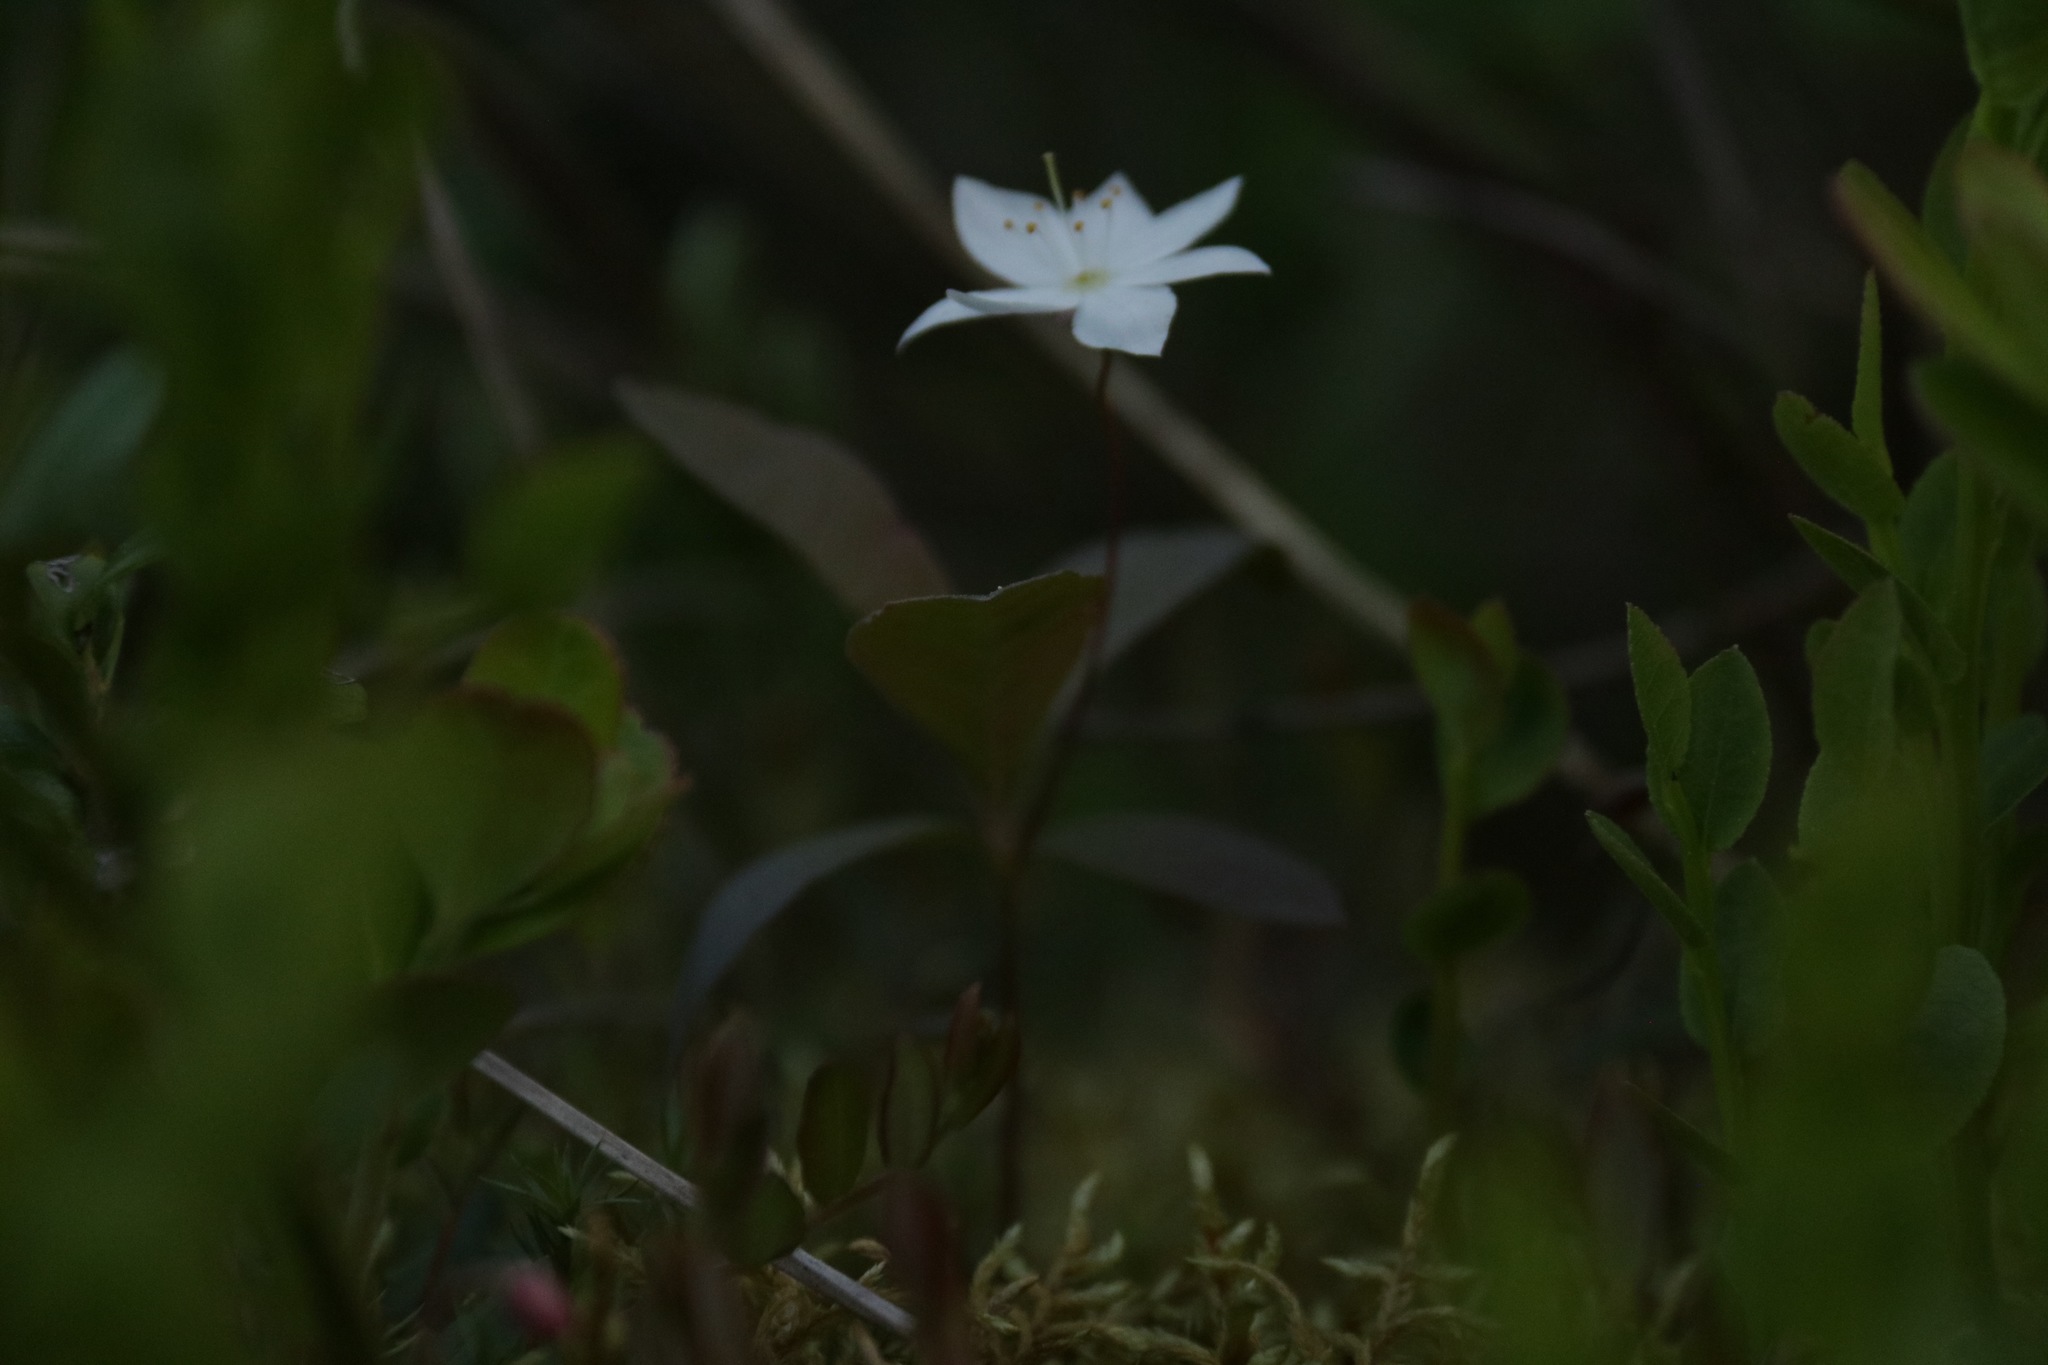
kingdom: Plantae
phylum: Tracheophyta
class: Magnoliopsida
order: Ericales
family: Primulaceae
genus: Lysimachia
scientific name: Lysimachia europaea
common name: Arctic starflower
